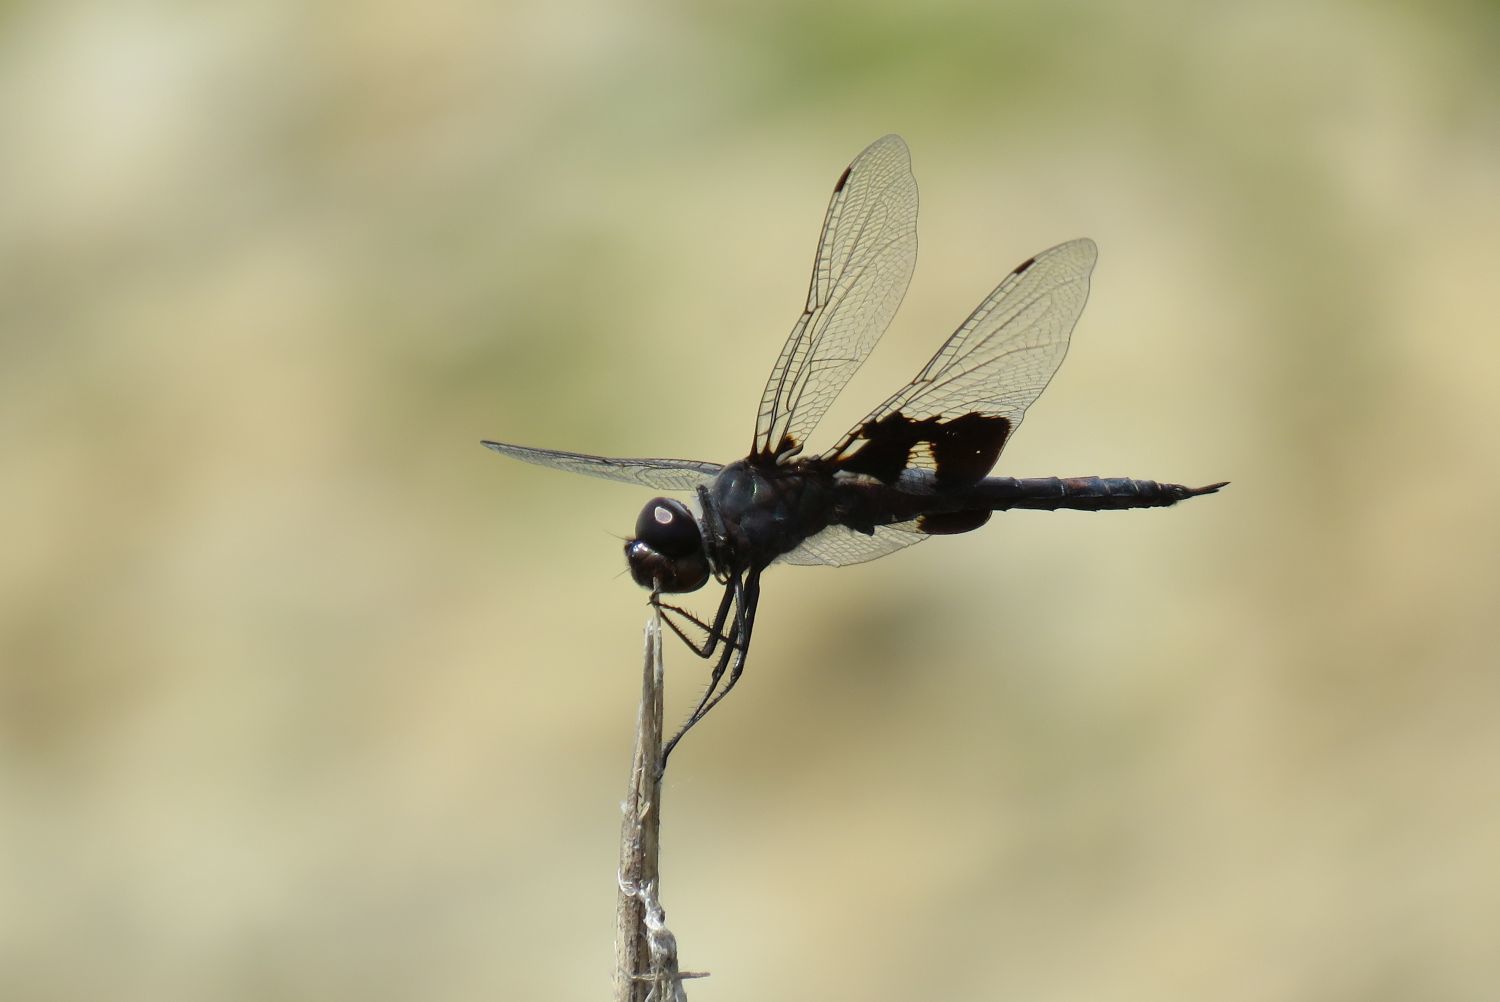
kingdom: Animalia
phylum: Arthropoda
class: Insecta
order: Odonata
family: Libellulidae
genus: Tramea
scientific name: Tramea lacerata
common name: Black saddlebags
